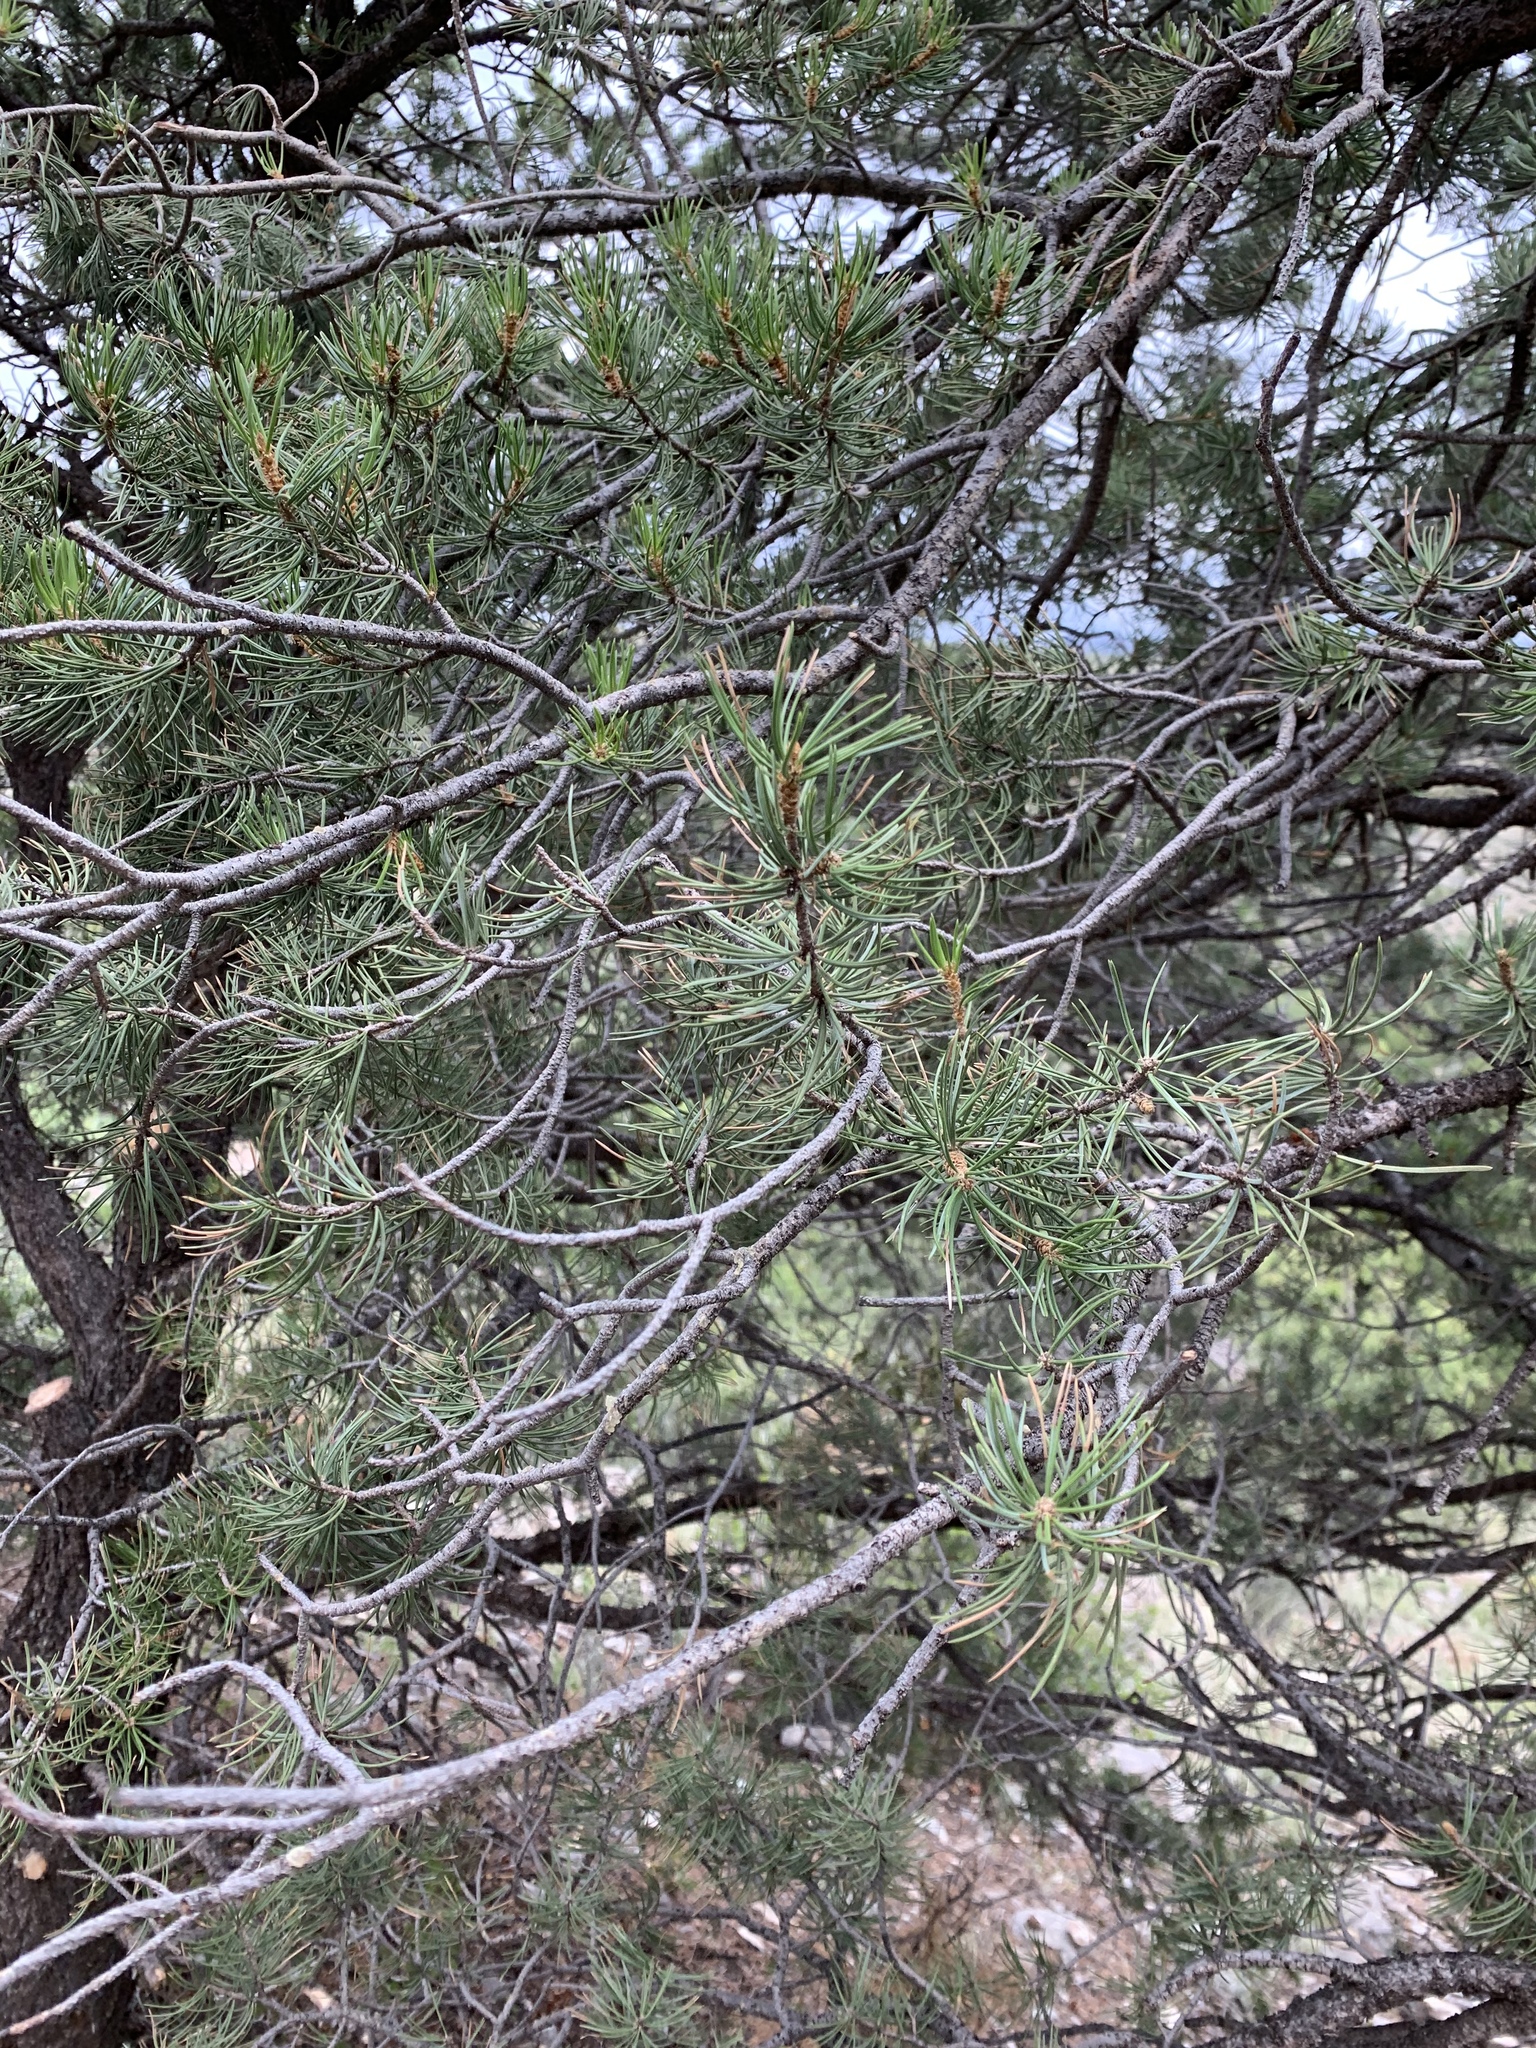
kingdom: Plantae
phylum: Tracheophyta
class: Pinopsida
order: Pinales
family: Pinaceae
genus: Pinus
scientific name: Pinus edulis
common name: Colorado pinyon
